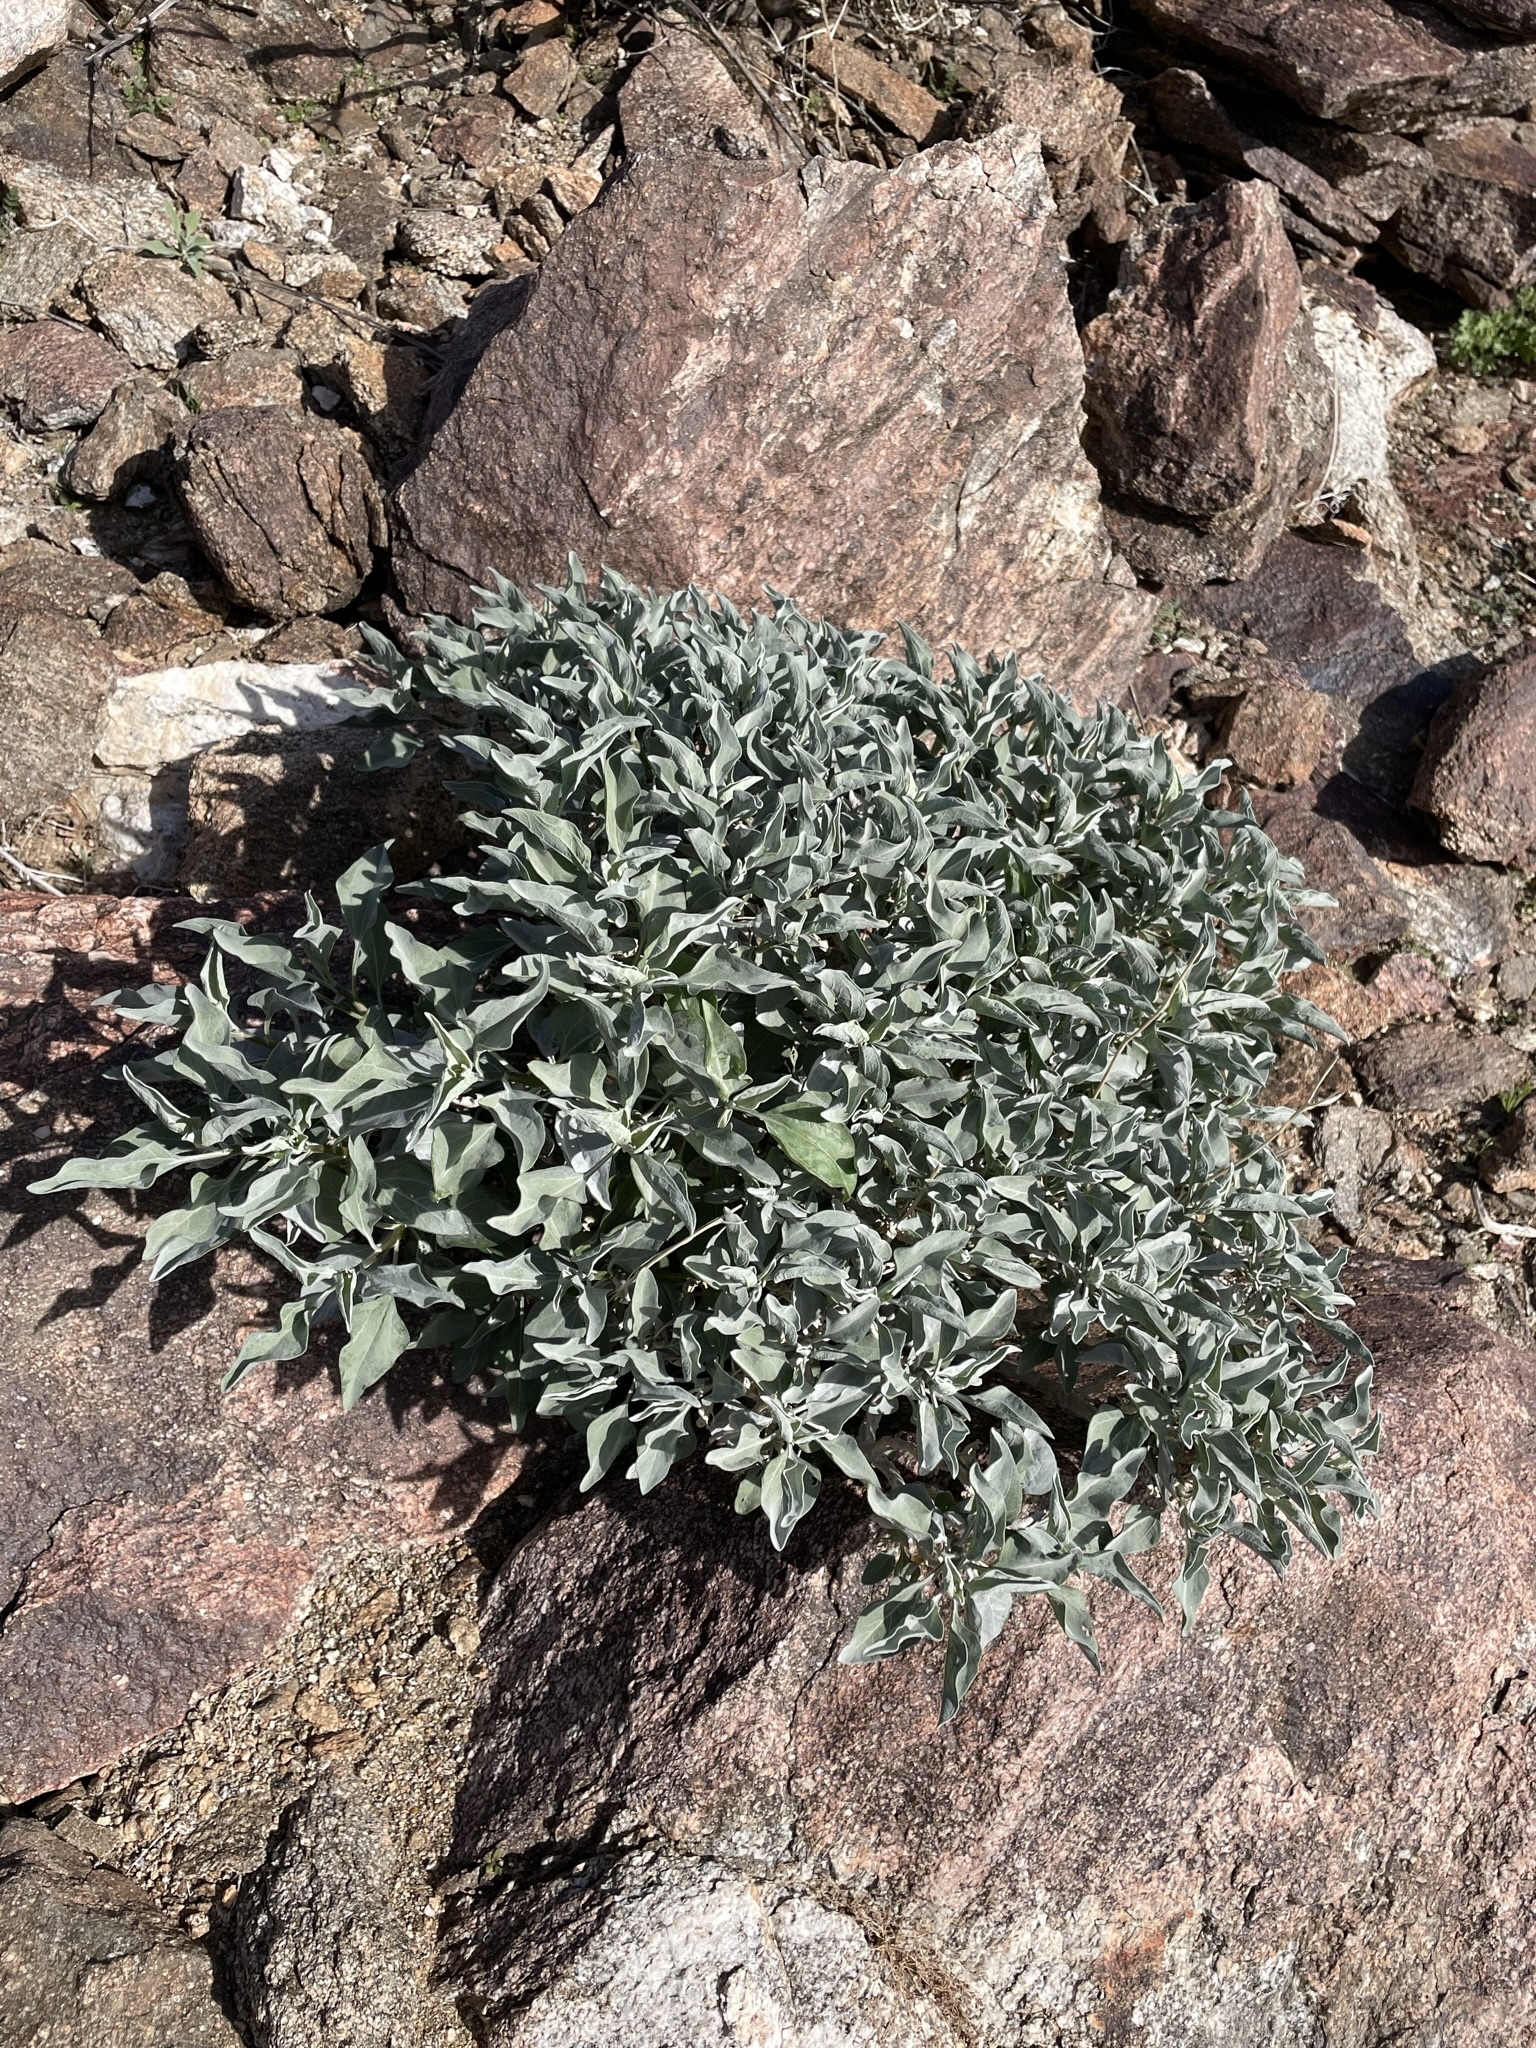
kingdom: Plantae
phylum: Tracheophyta
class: Magnoliopsida
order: Asterales
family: Asteraceae
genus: Encelia
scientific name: Encelia farinosa
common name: Brittlebush
